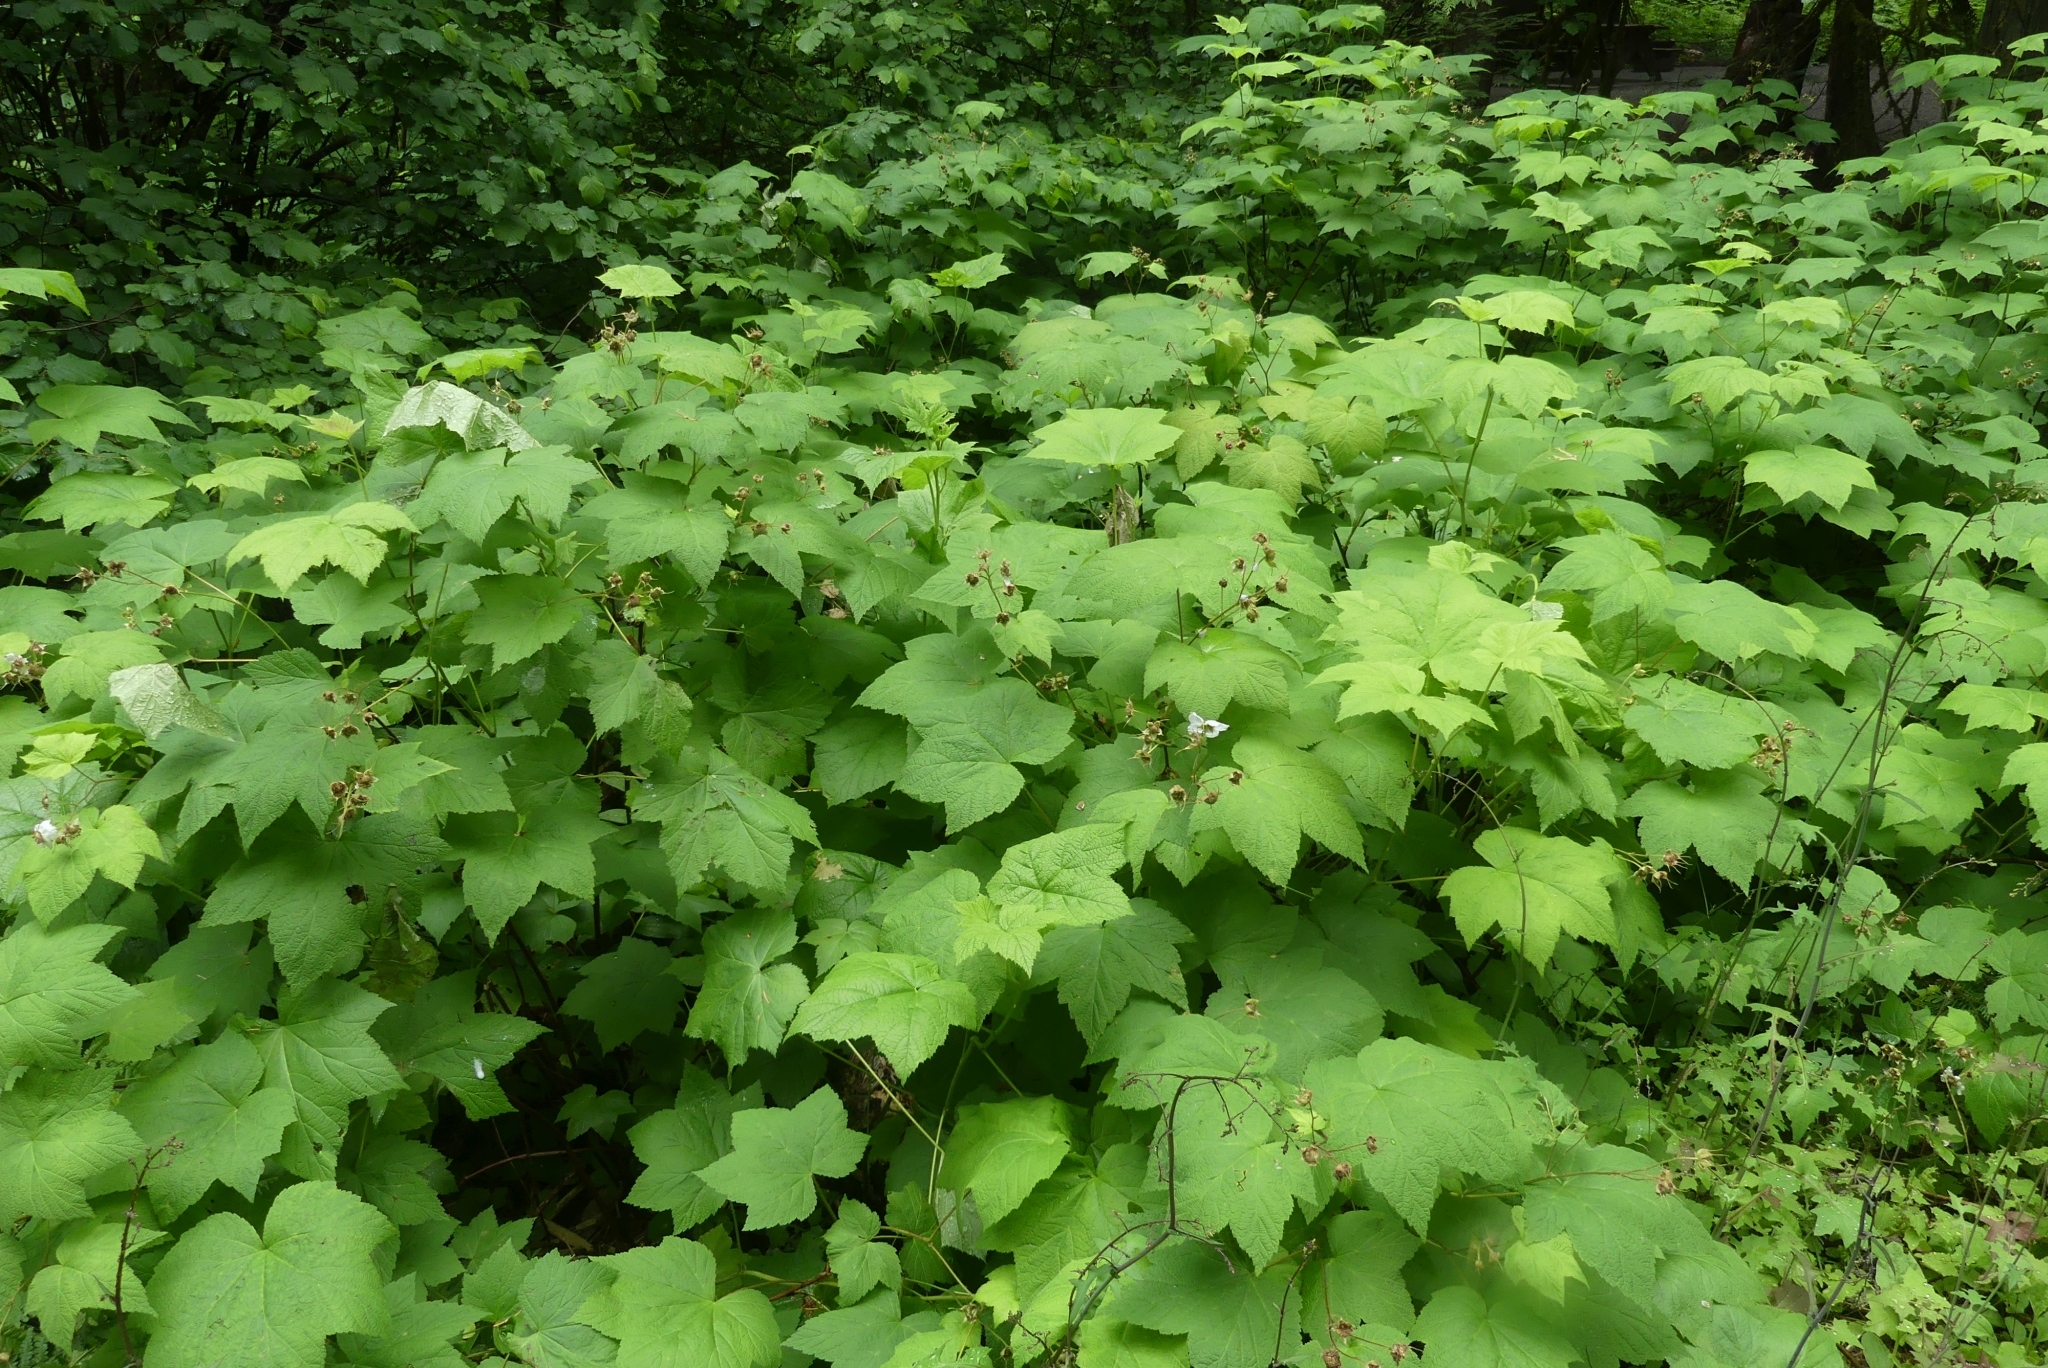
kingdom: Plantae
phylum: Tracheophyta
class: Magnoliopsida
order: Rosales
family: Rosaceae
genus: Rubus
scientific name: Rubus parviflorus
